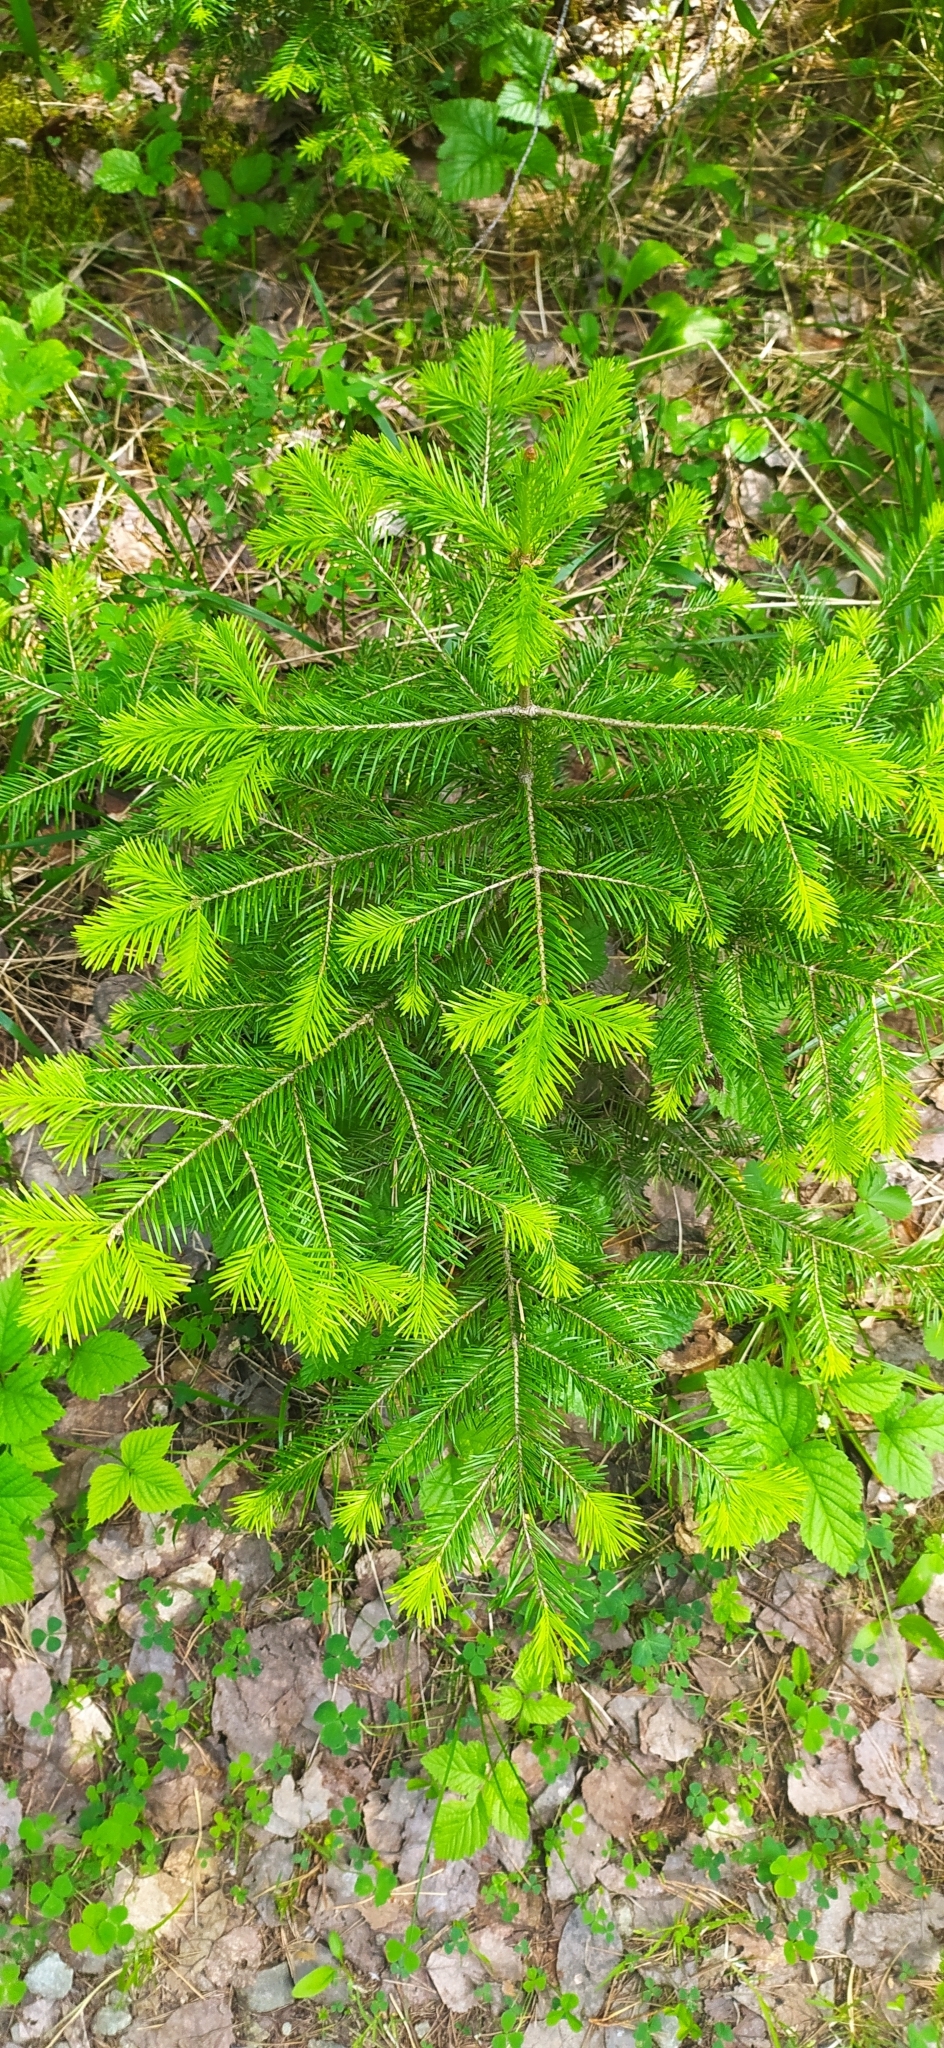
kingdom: Plantae
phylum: Tracheophyta
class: Pinopsida
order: Pinales
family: Pinaceae
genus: Abies
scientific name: Abies sibirica
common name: Siberian fir
